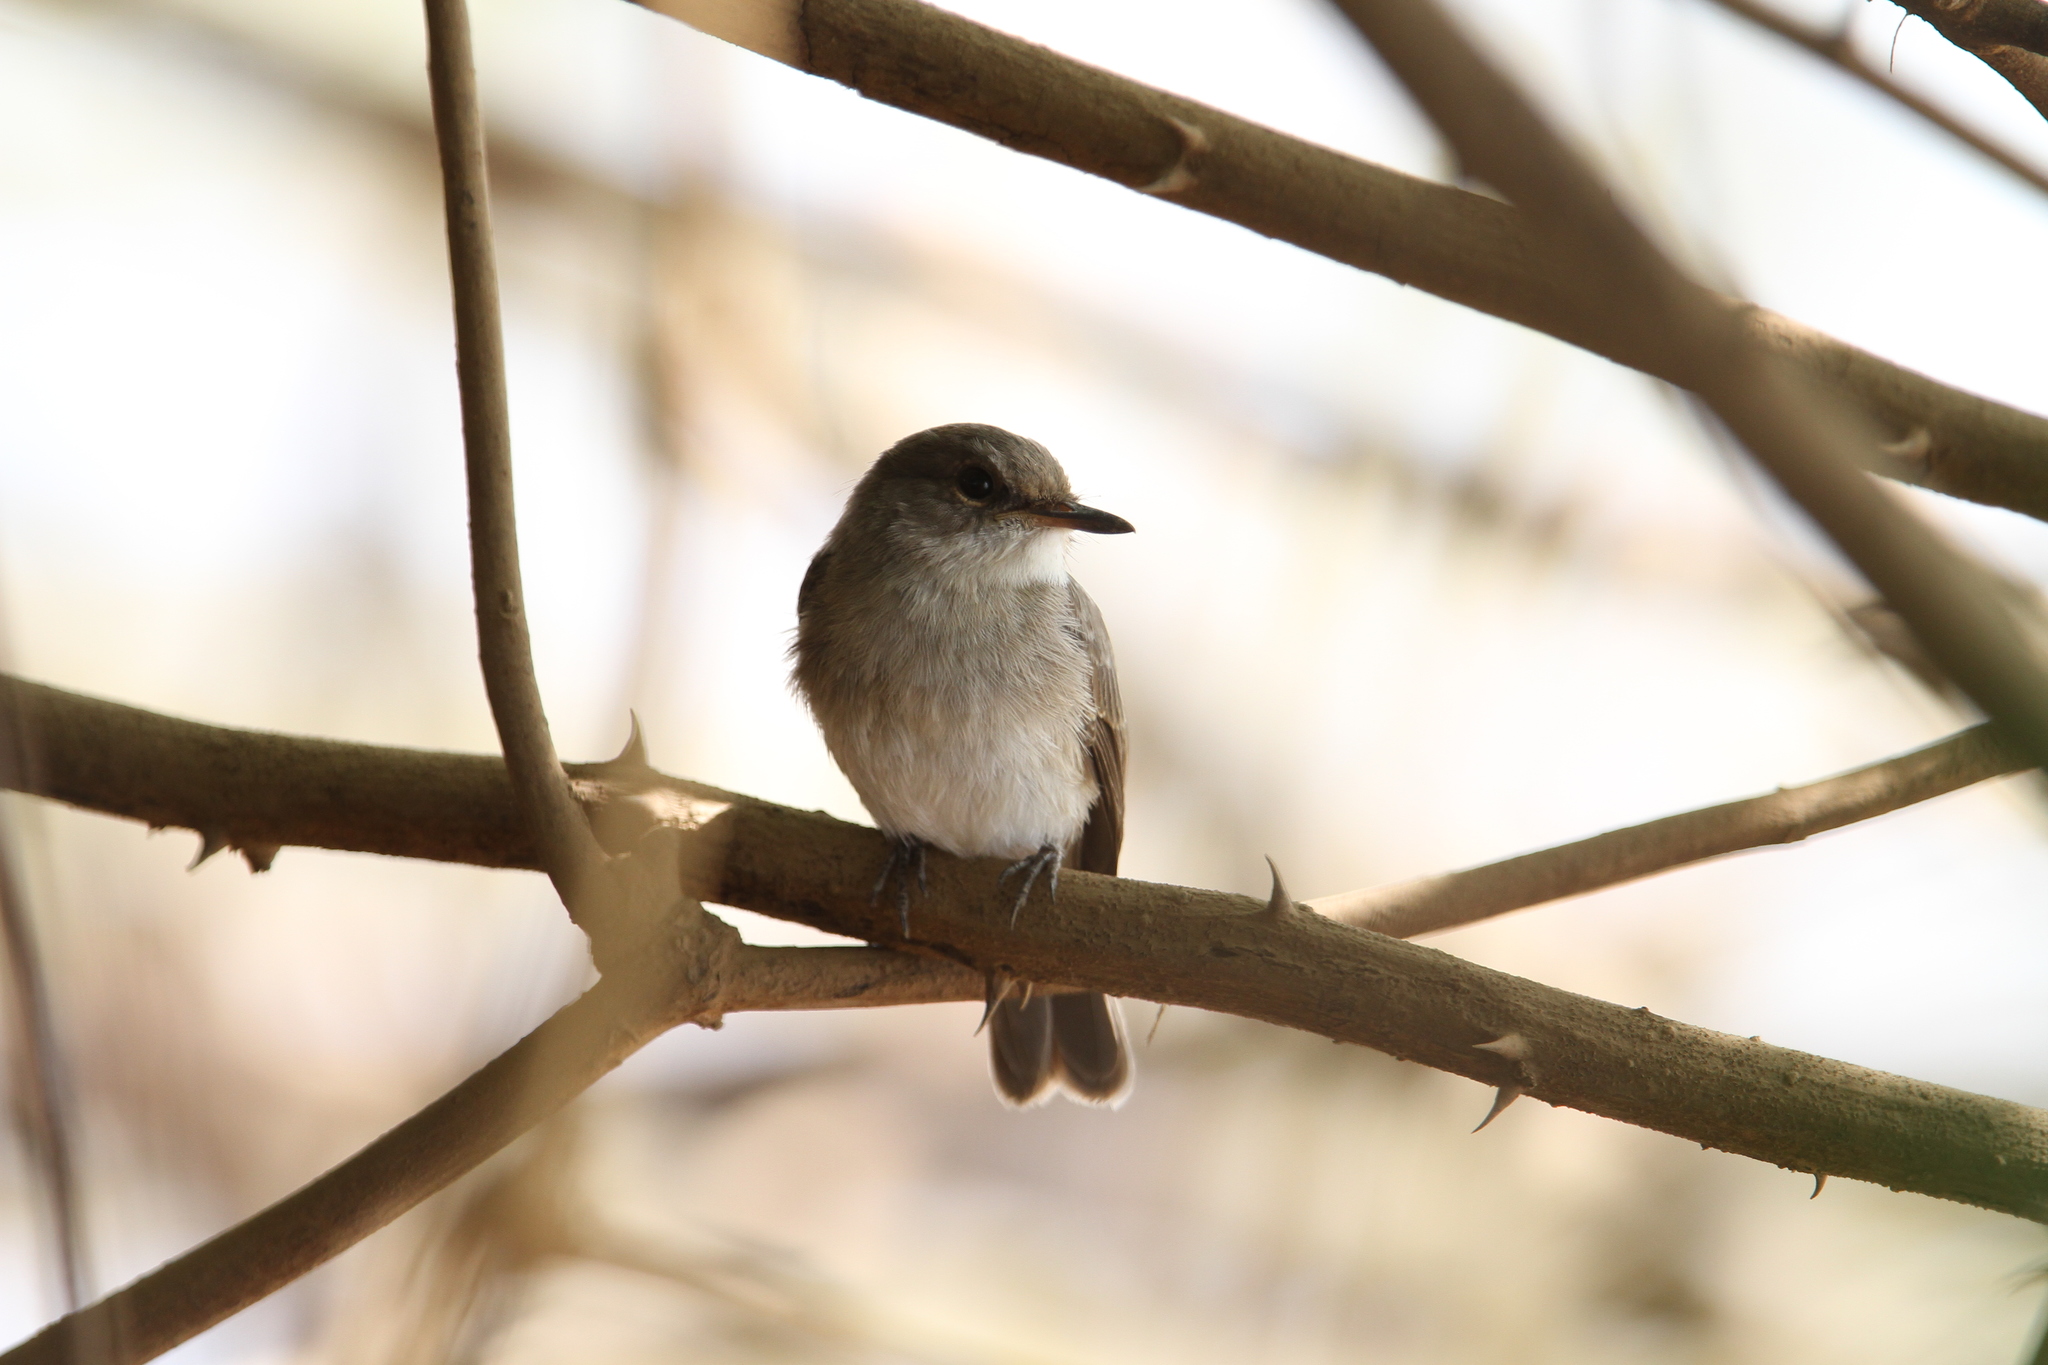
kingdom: Animalia
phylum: Chordata
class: Aves
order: Passeriformes
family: Muscicapidae
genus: Muscicapa
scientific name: Muscicapa aquatica
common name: Swamp flycatcher
